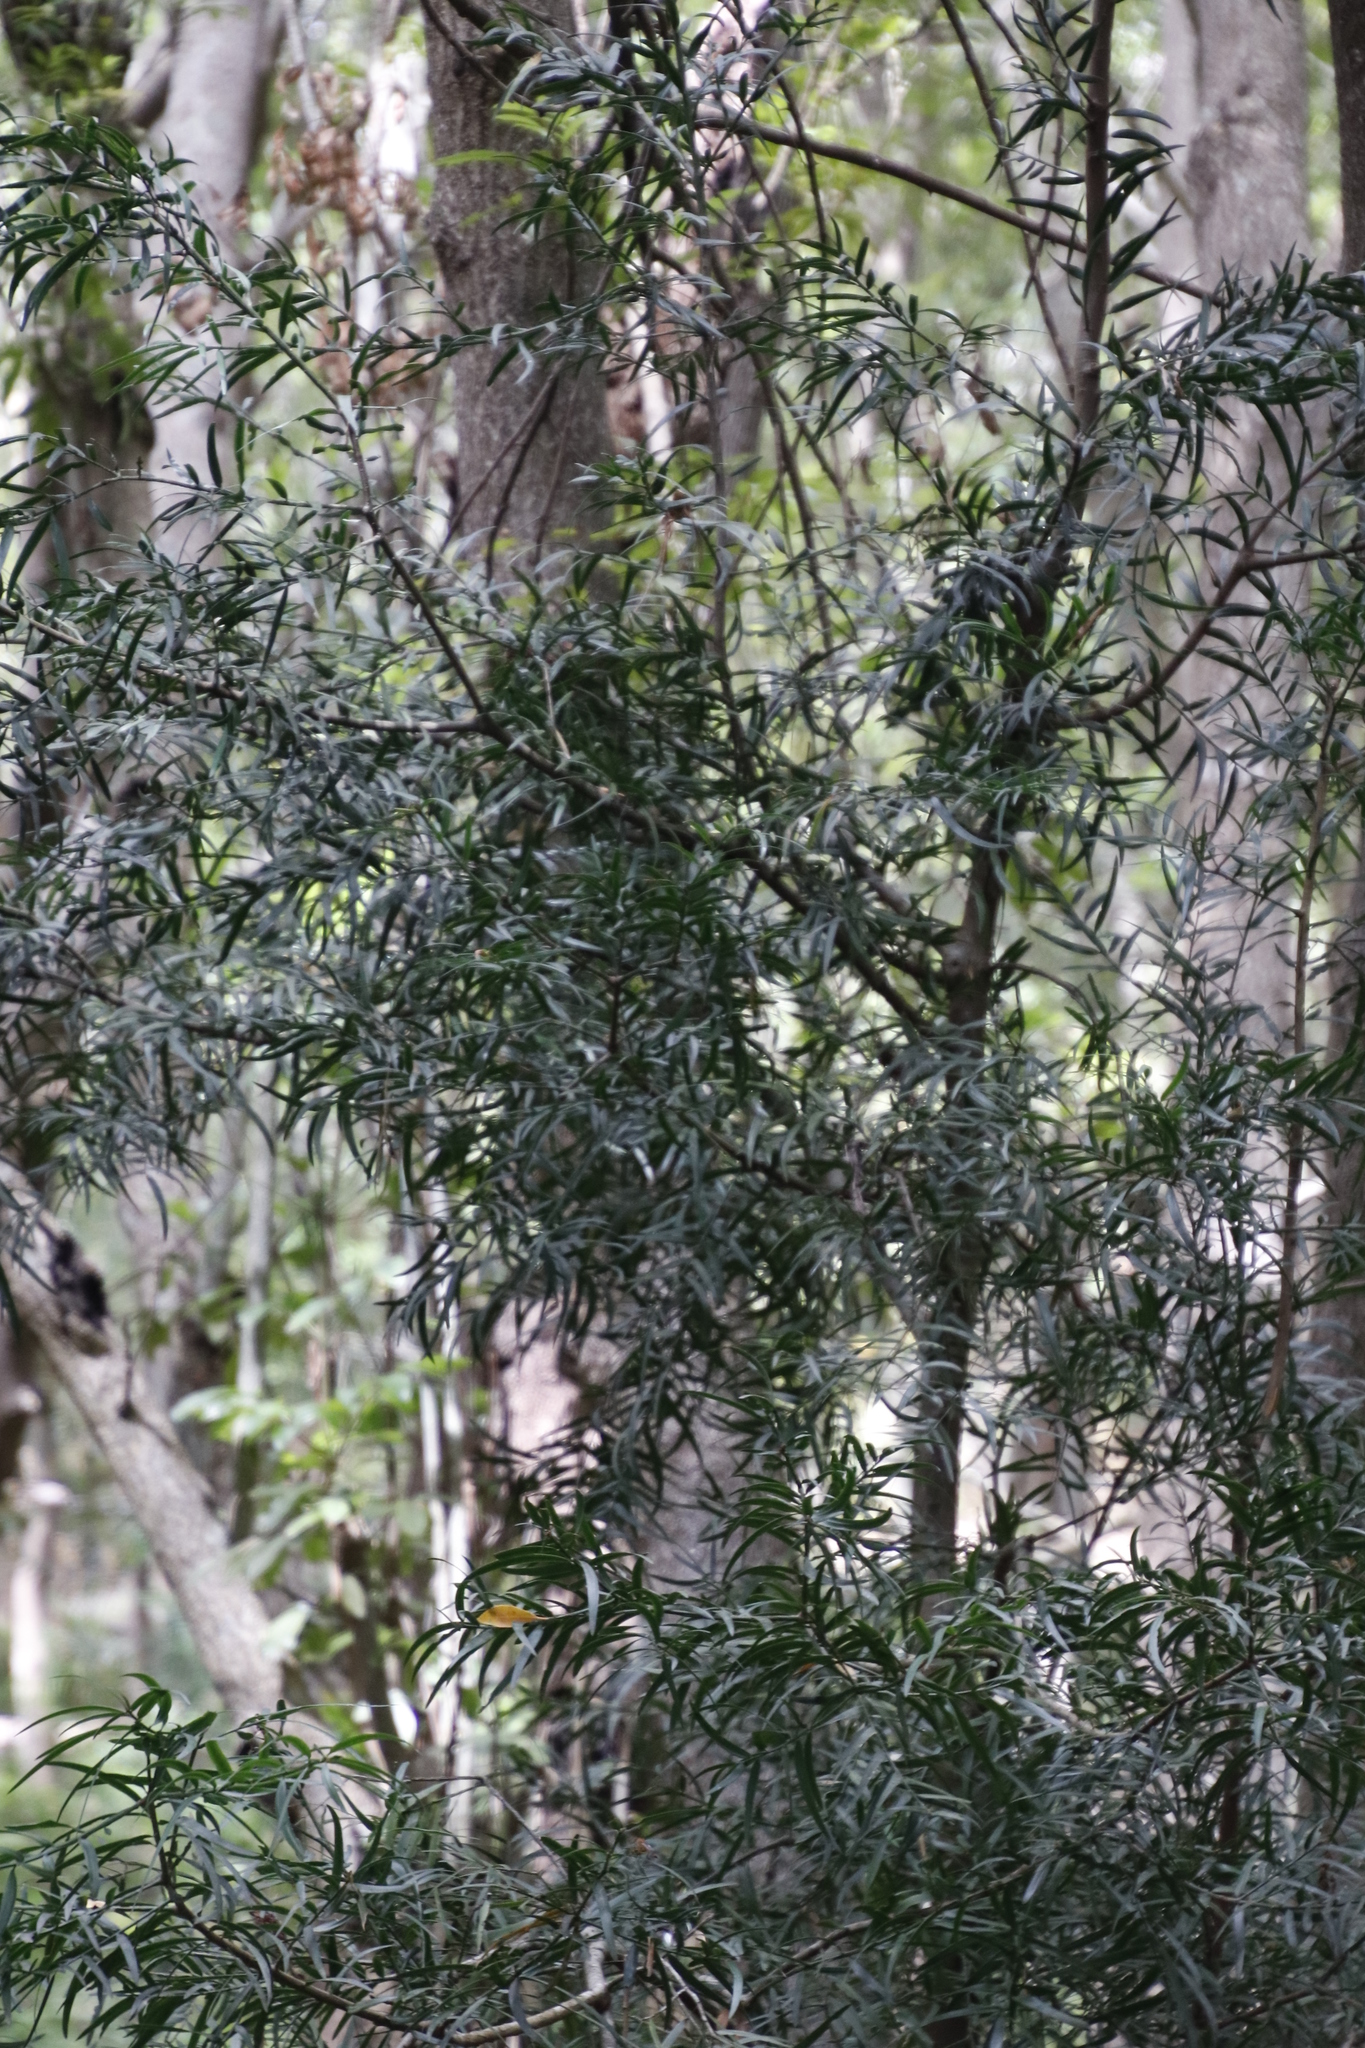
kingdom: Plantae
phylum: Tracheophyta
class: Pinopsida
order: Pinales
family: Podocarpaceae
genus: Afrocarpus
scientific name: Afrocarpus falcatus
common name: Bastard yellowwood
